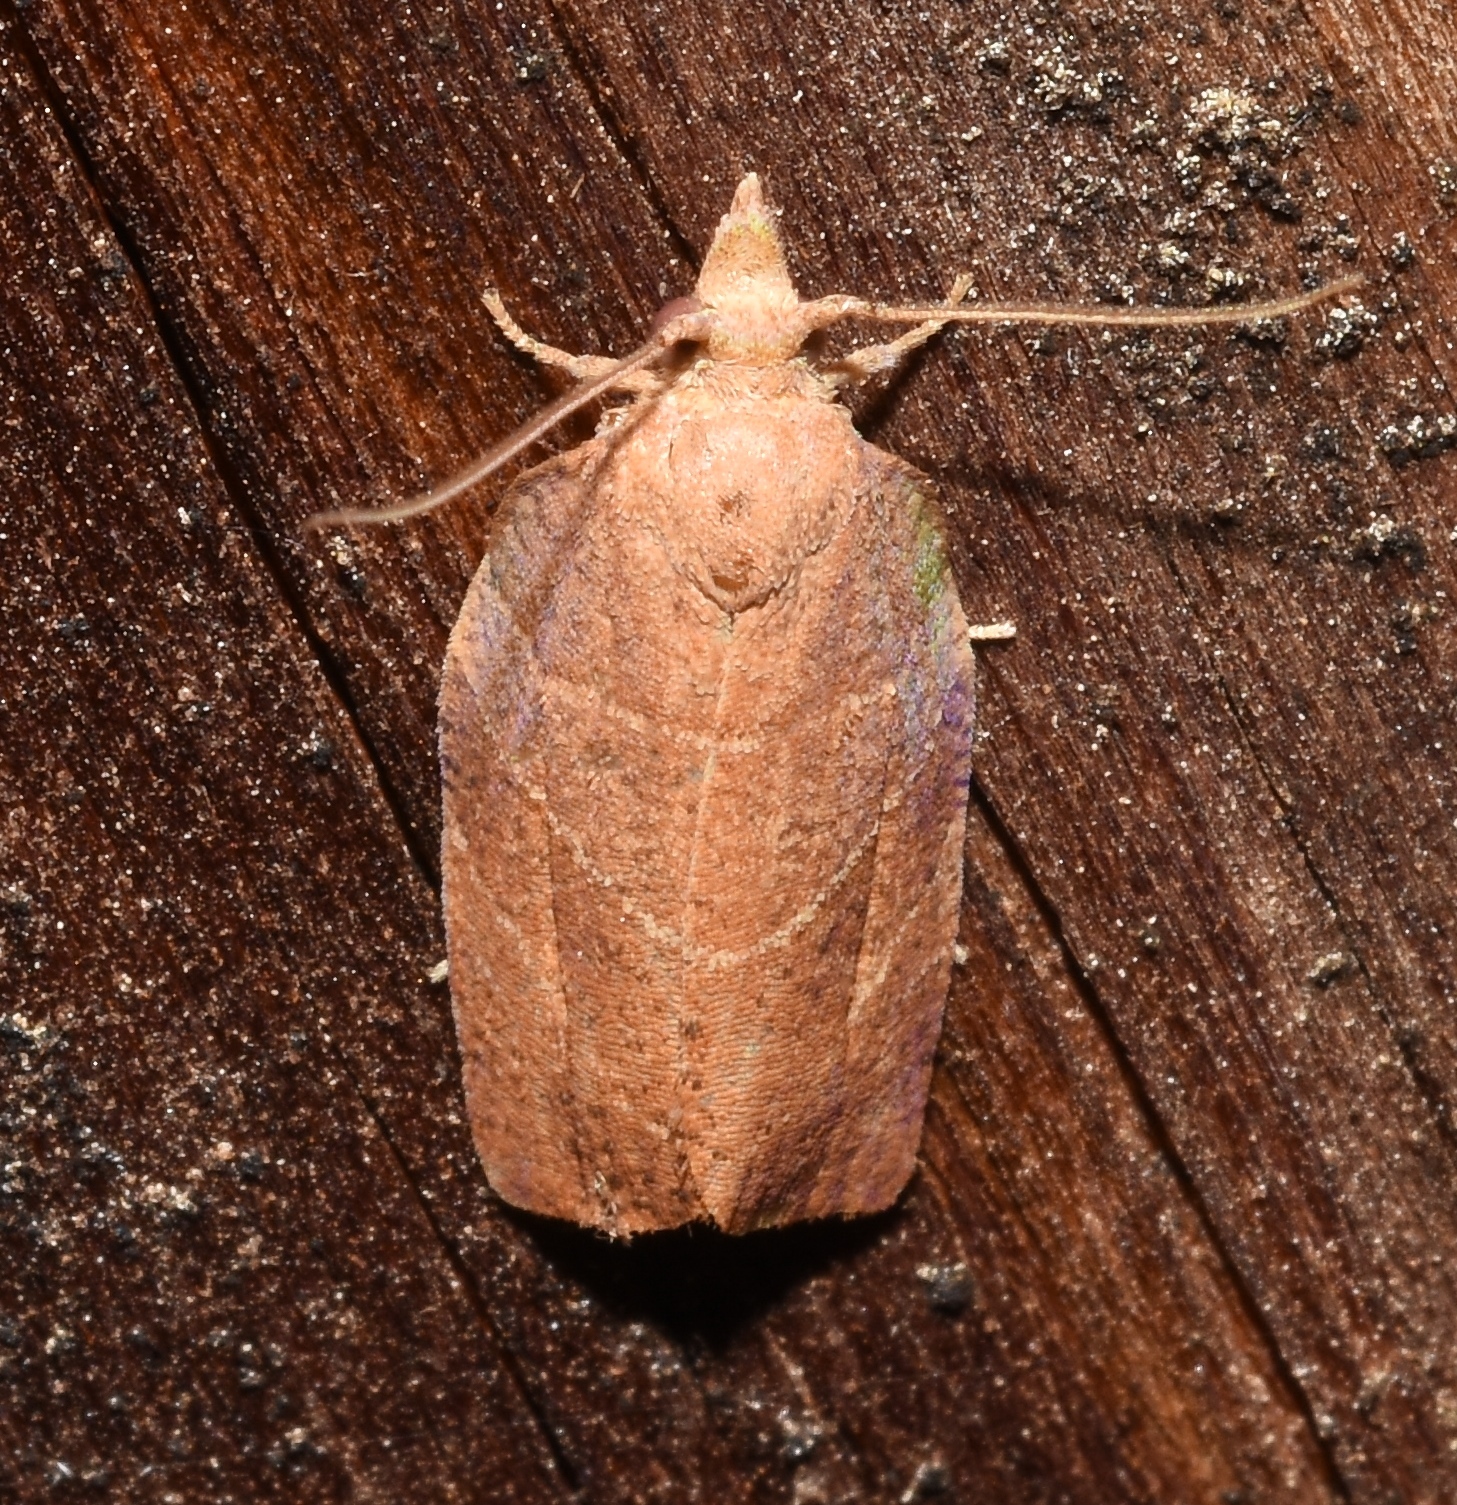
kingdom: Animalia
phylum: Arthropoda
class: Insecta
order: Lepidoptera
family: Tortricidae
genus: Pandemis
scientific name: Pandemis limitata
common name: Three-lined leafroller moth
